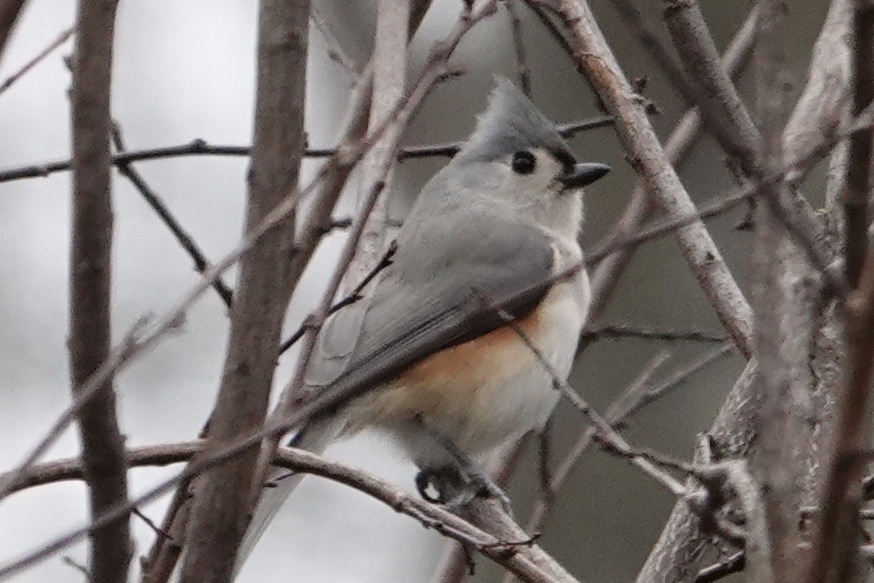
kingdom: Animalia
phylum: Chordata
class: Aves
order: Passeriformes
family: Paridae
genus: Baeolophus
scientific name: Baeolophus bicolor
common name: Tufted titmouse
